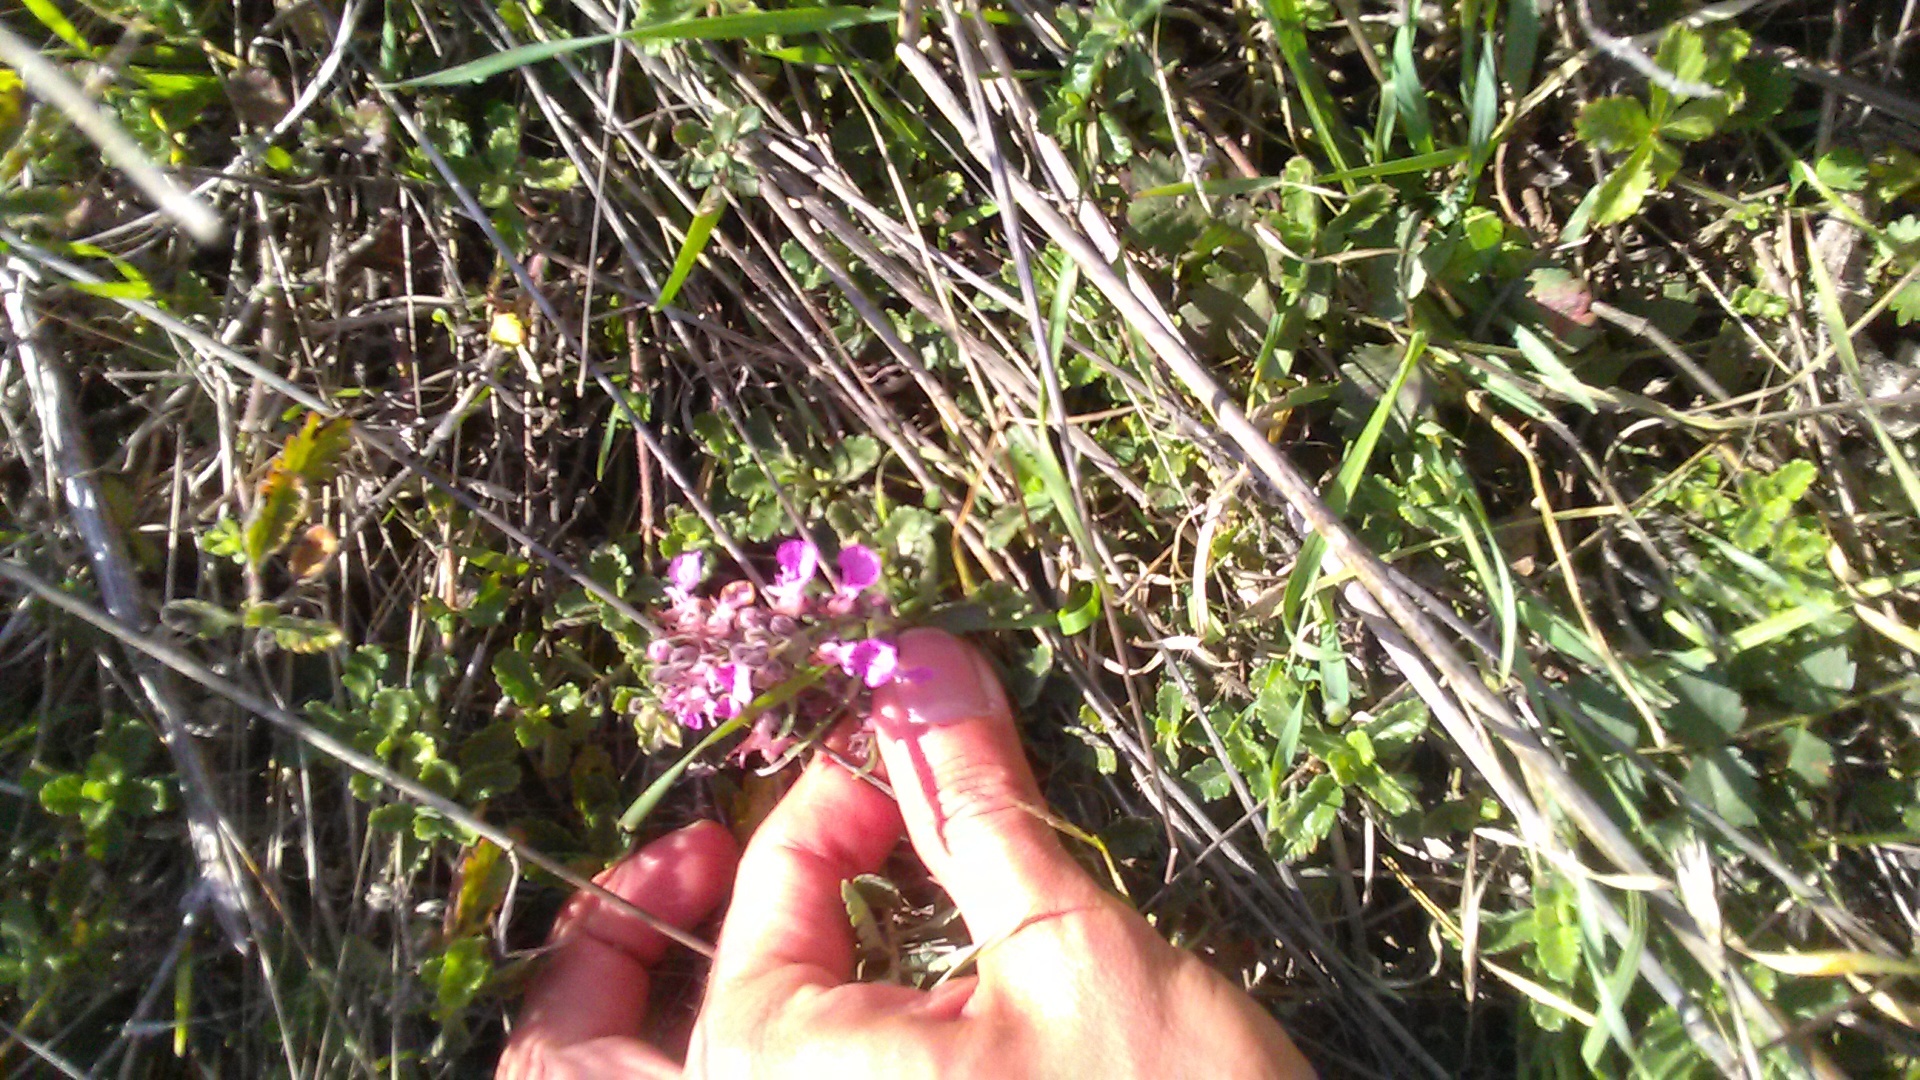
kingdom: Plantae
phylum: Tracheophyta
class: Magnoliopsida
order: Lamiales
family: Lamiaceae
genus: Teucrium
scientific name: Teucrium chamaedrys
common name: Wall germander
